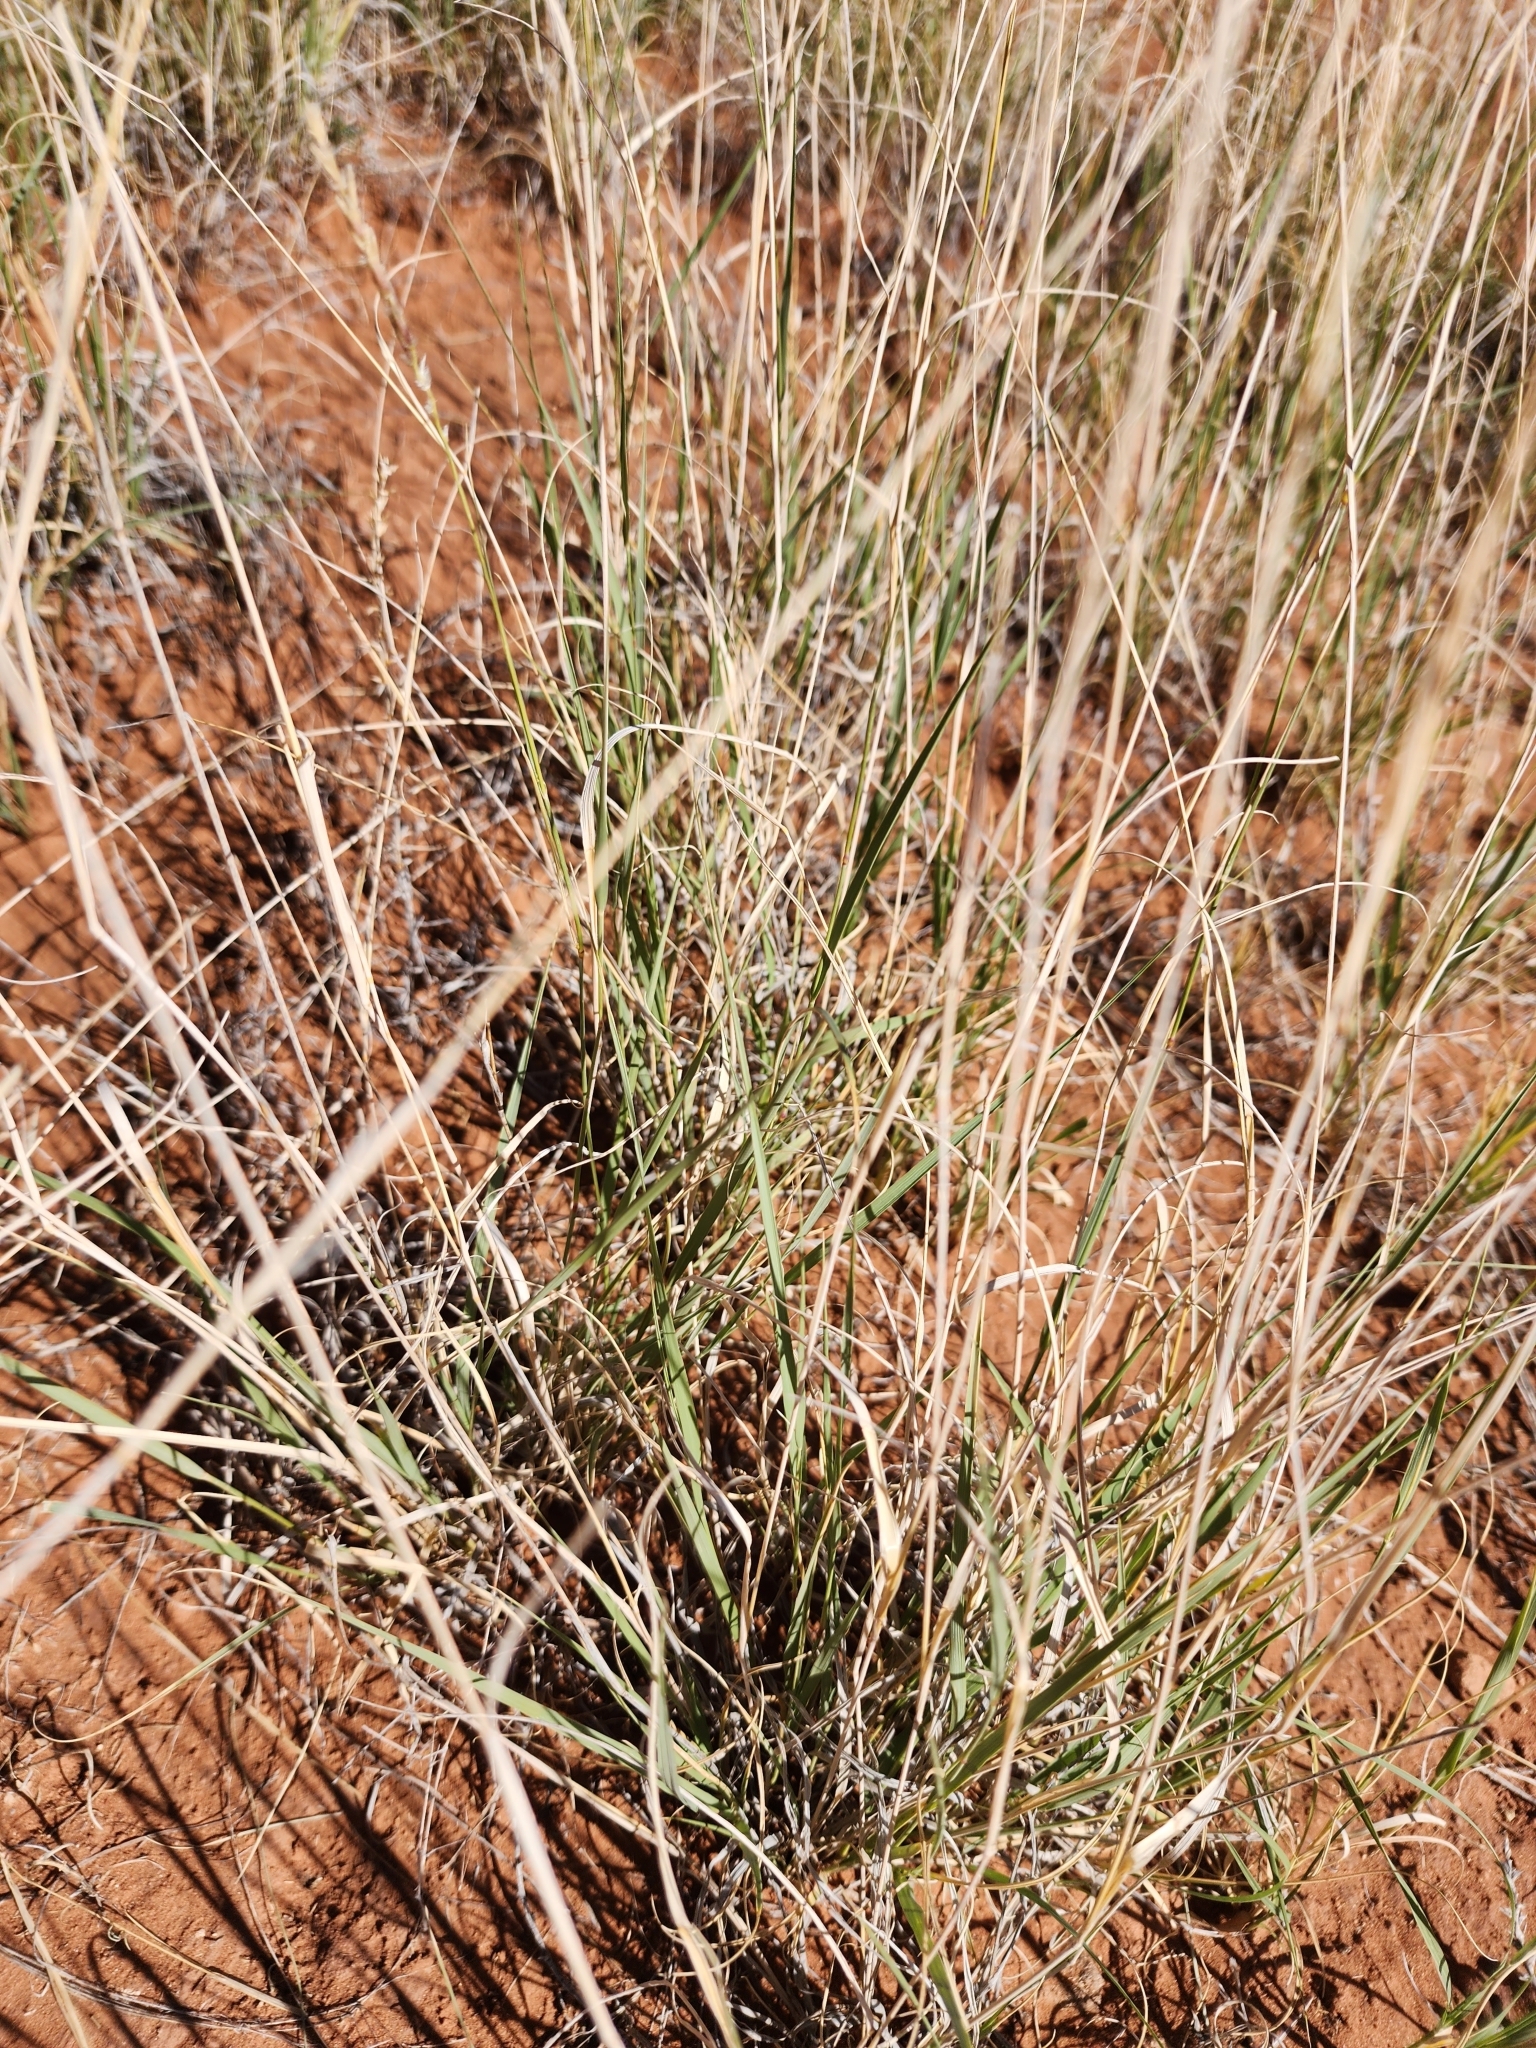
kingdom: Plantae
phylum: Tracheophyta
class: Liliopsida
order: Poales
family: Poaceae
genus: Bouteloua
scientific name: Bouteloua curtipendula
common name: Side-oats grama
